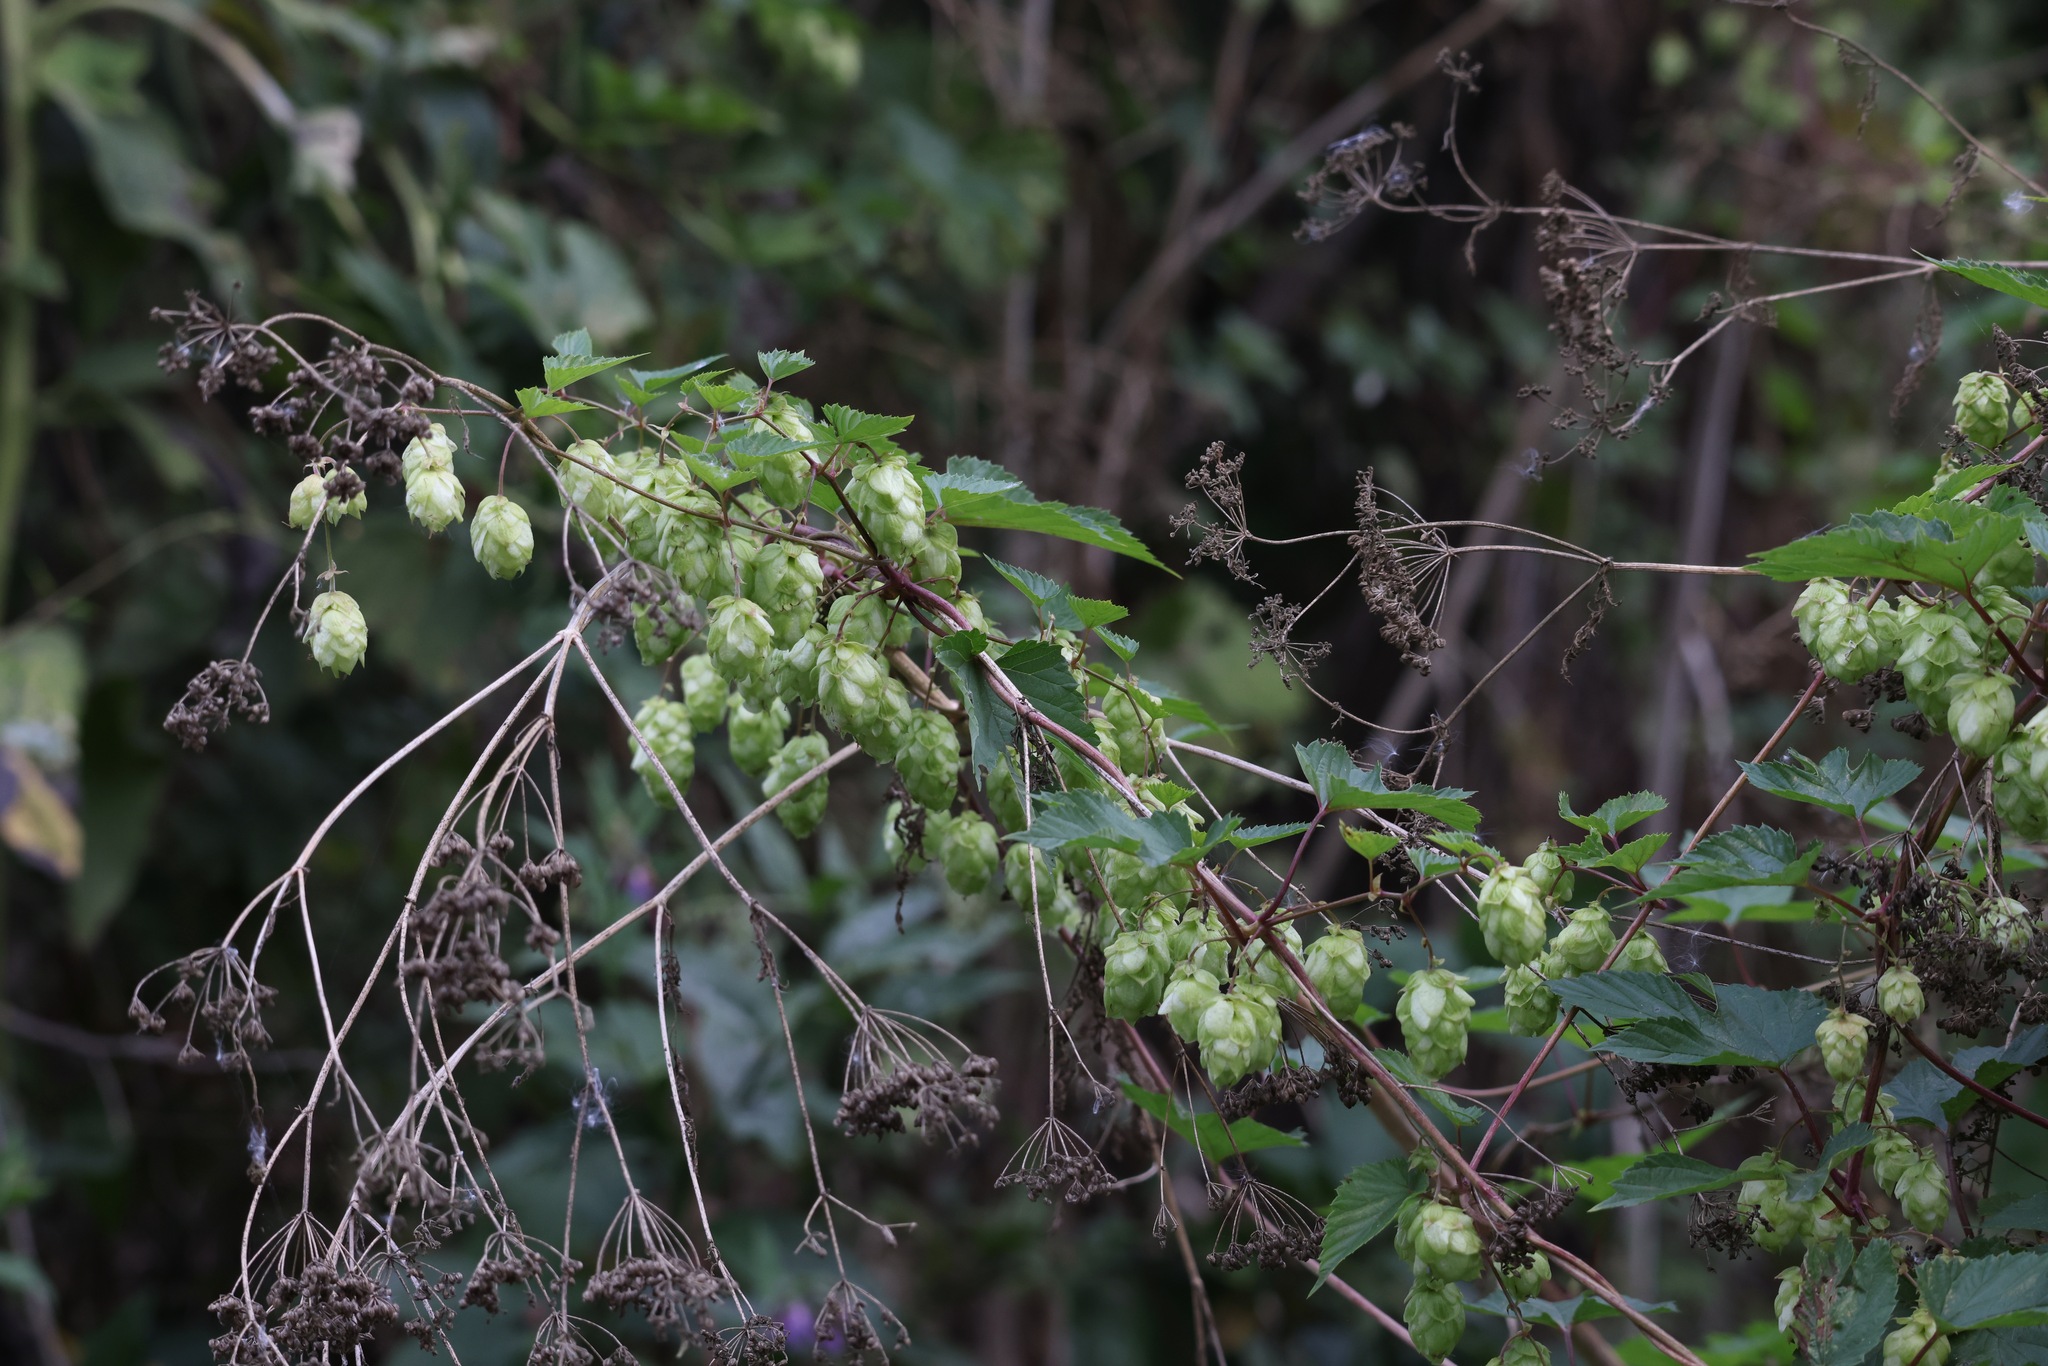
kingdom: Plantae
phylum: Tracheophyta
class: Magnoliopsida
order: Rosales
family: Cannabaceae
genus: Humulus
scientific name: Humulus lupulus
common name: Hop
